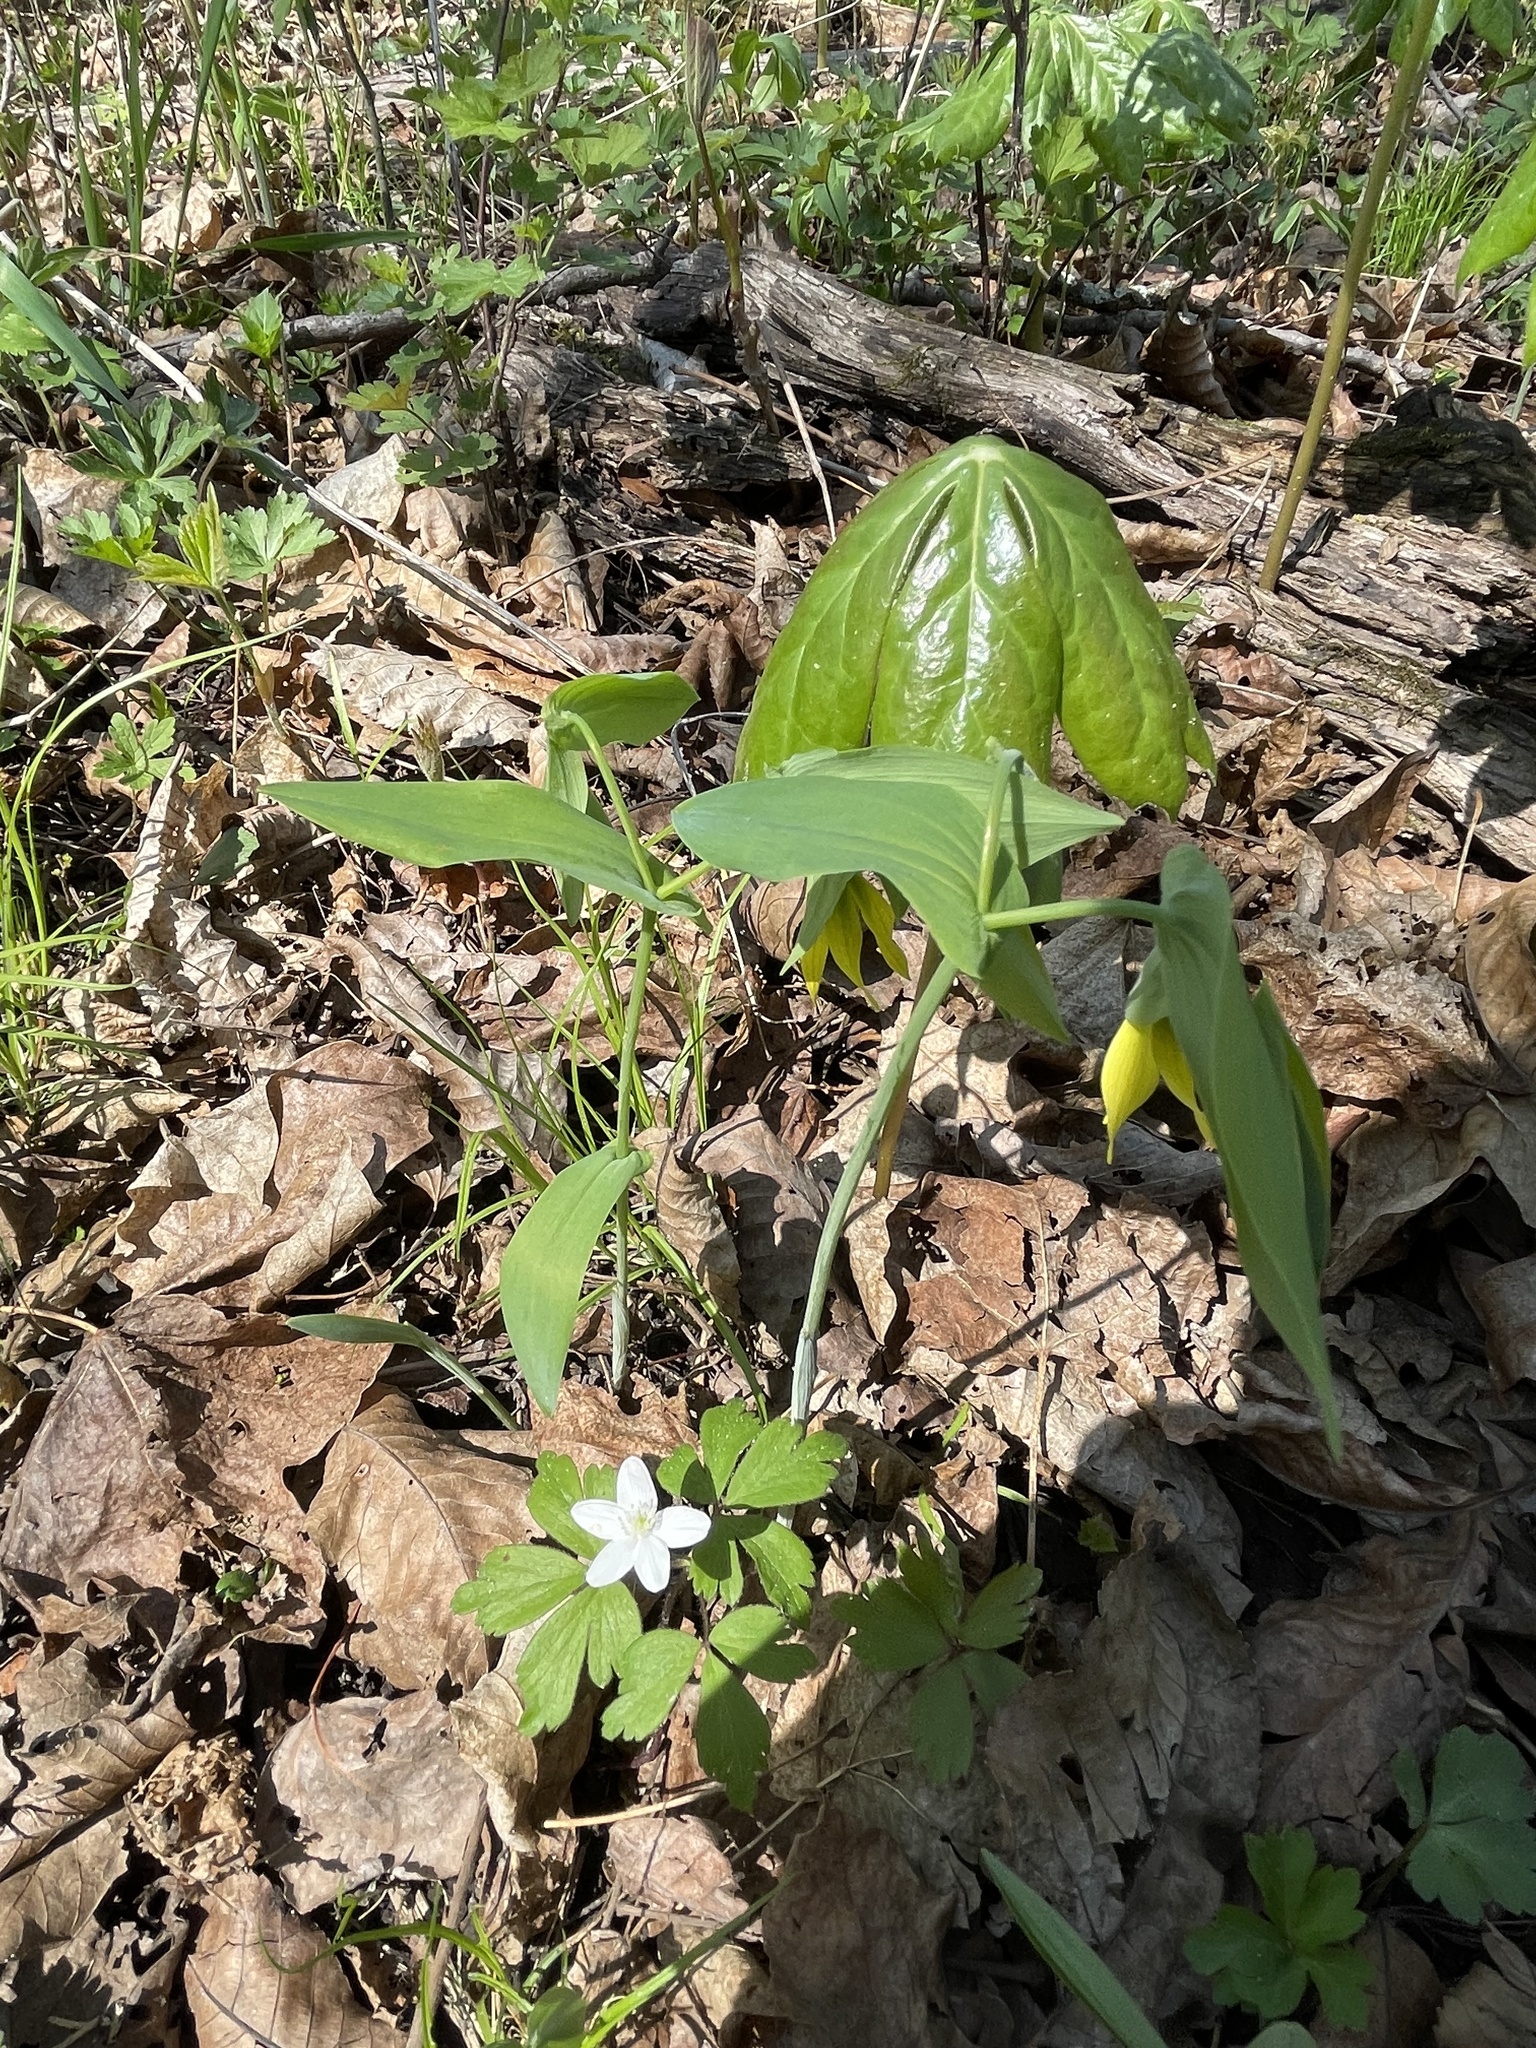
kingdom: Plantae
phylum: Tracheophyta
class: Liliopsida
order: Liliales
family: Colchicaceae
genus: Uvularia
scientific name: Uvularia grandiflora
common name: Bellwort
